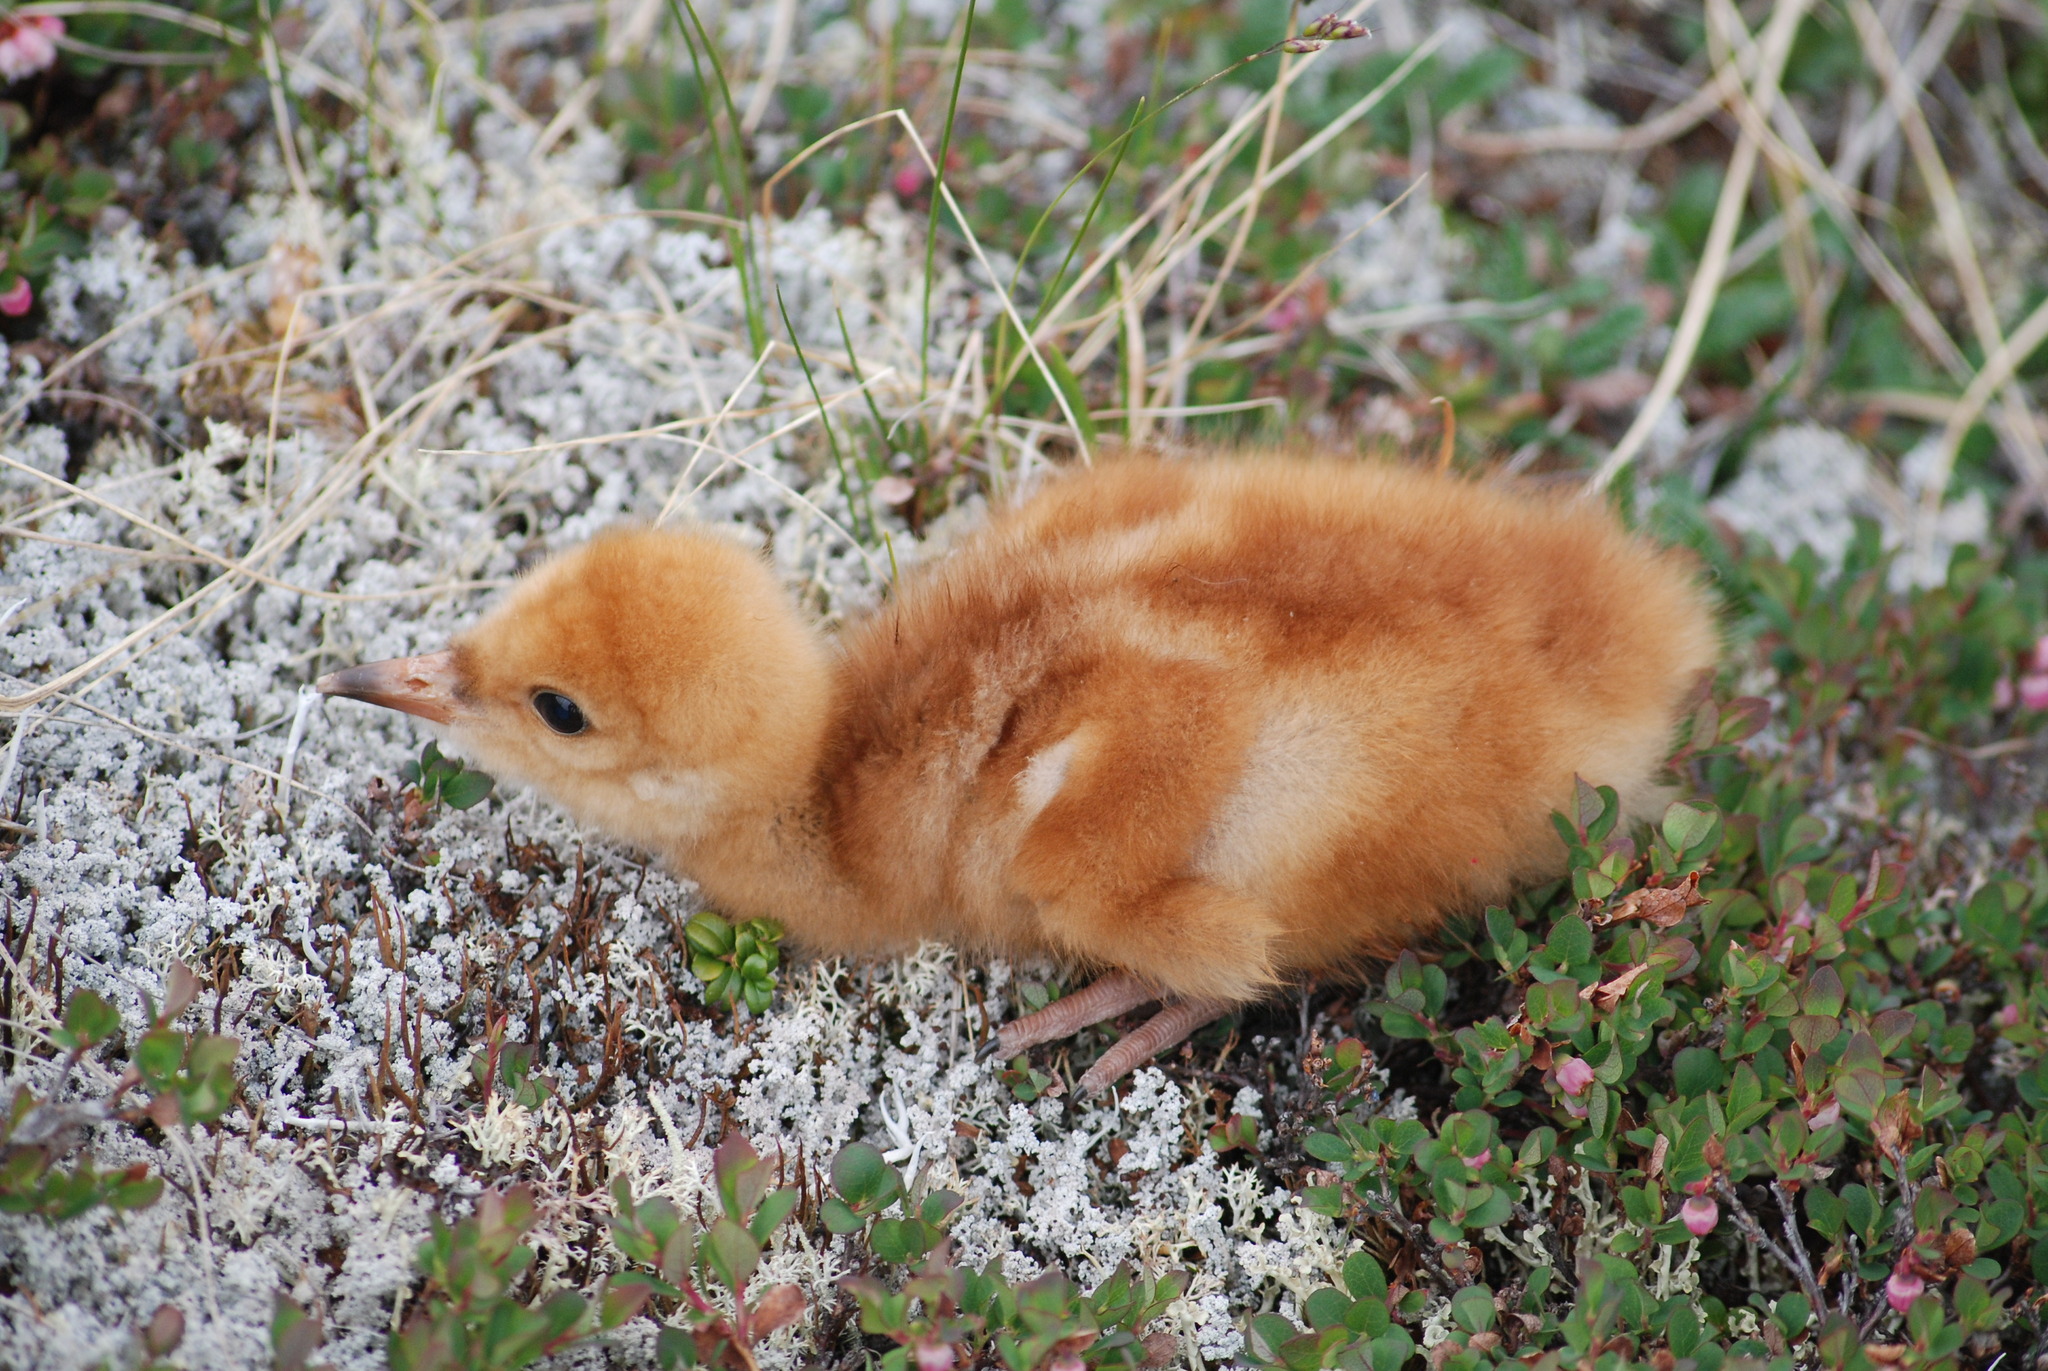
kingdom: Animalia
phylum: Chordata
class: Aves
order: Gruiformes
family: Gruidae
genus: Grus
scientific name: Grus canadensis
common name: Sandhill crane
